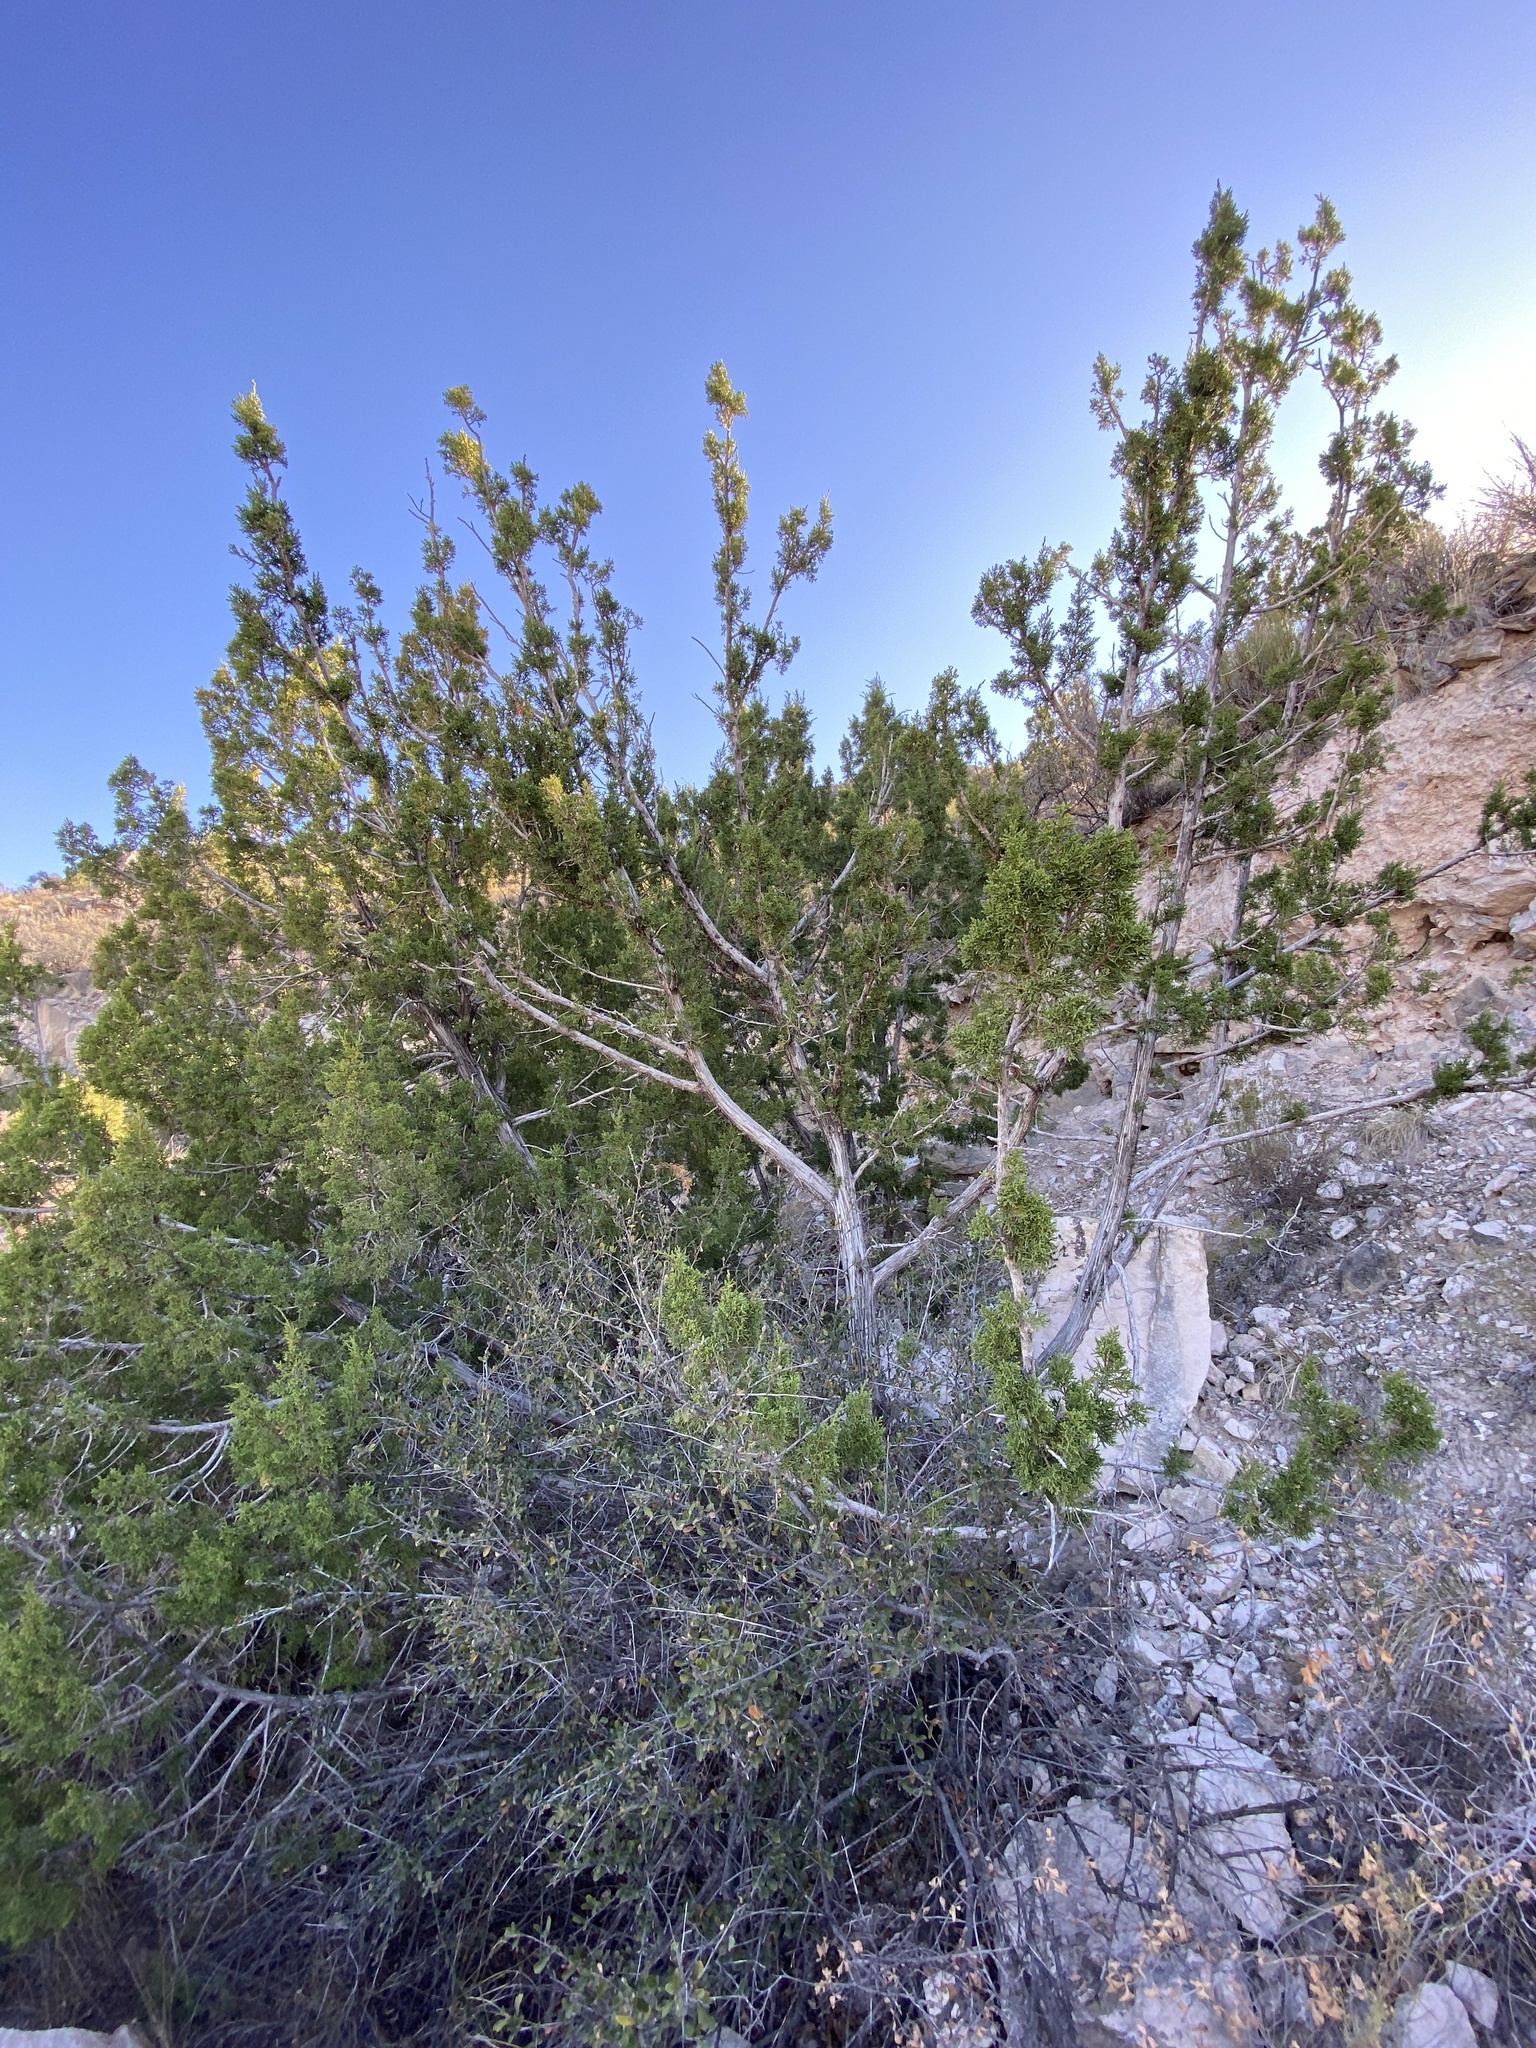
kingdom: Plantae
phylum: Tracheophyta
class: Pinopsida
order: Pinales
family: Cupressaceae
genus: Juniperus
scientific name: Juniperus monosperma
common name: One-seed juniper
